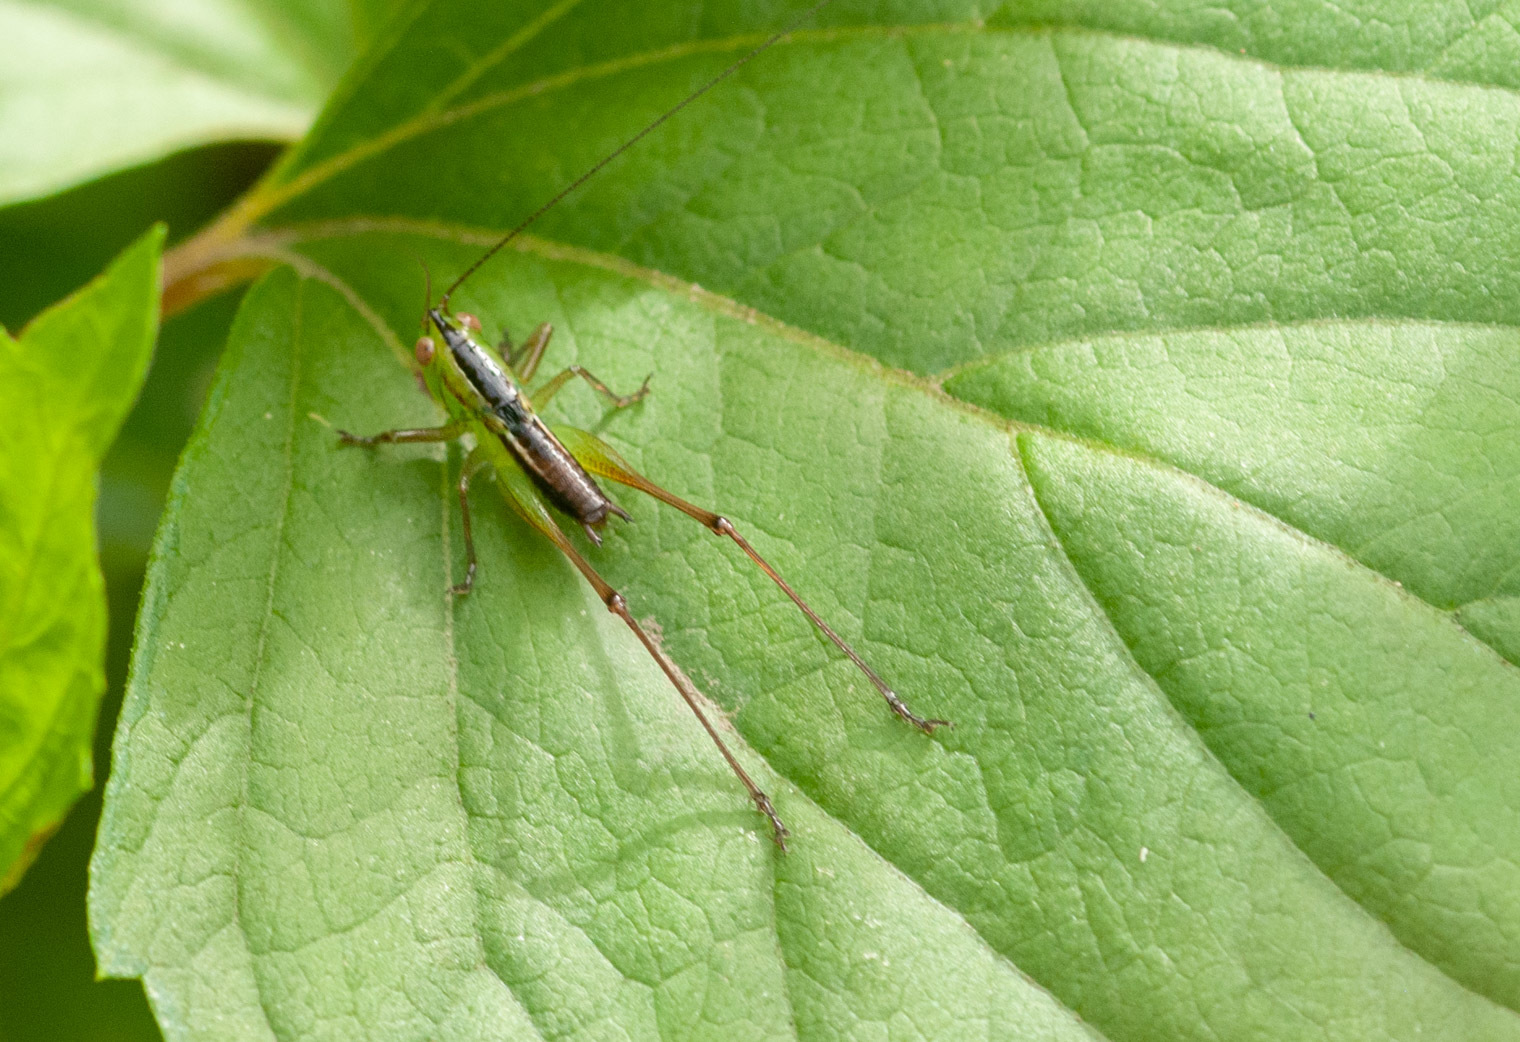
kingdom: Animalia
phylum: Arthropoda
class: Insecta
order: Orthoptera
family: Tettigoniidae
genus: Conocephalus
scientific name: Conocephalus semivittatus
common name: Blackish meadow katydid
